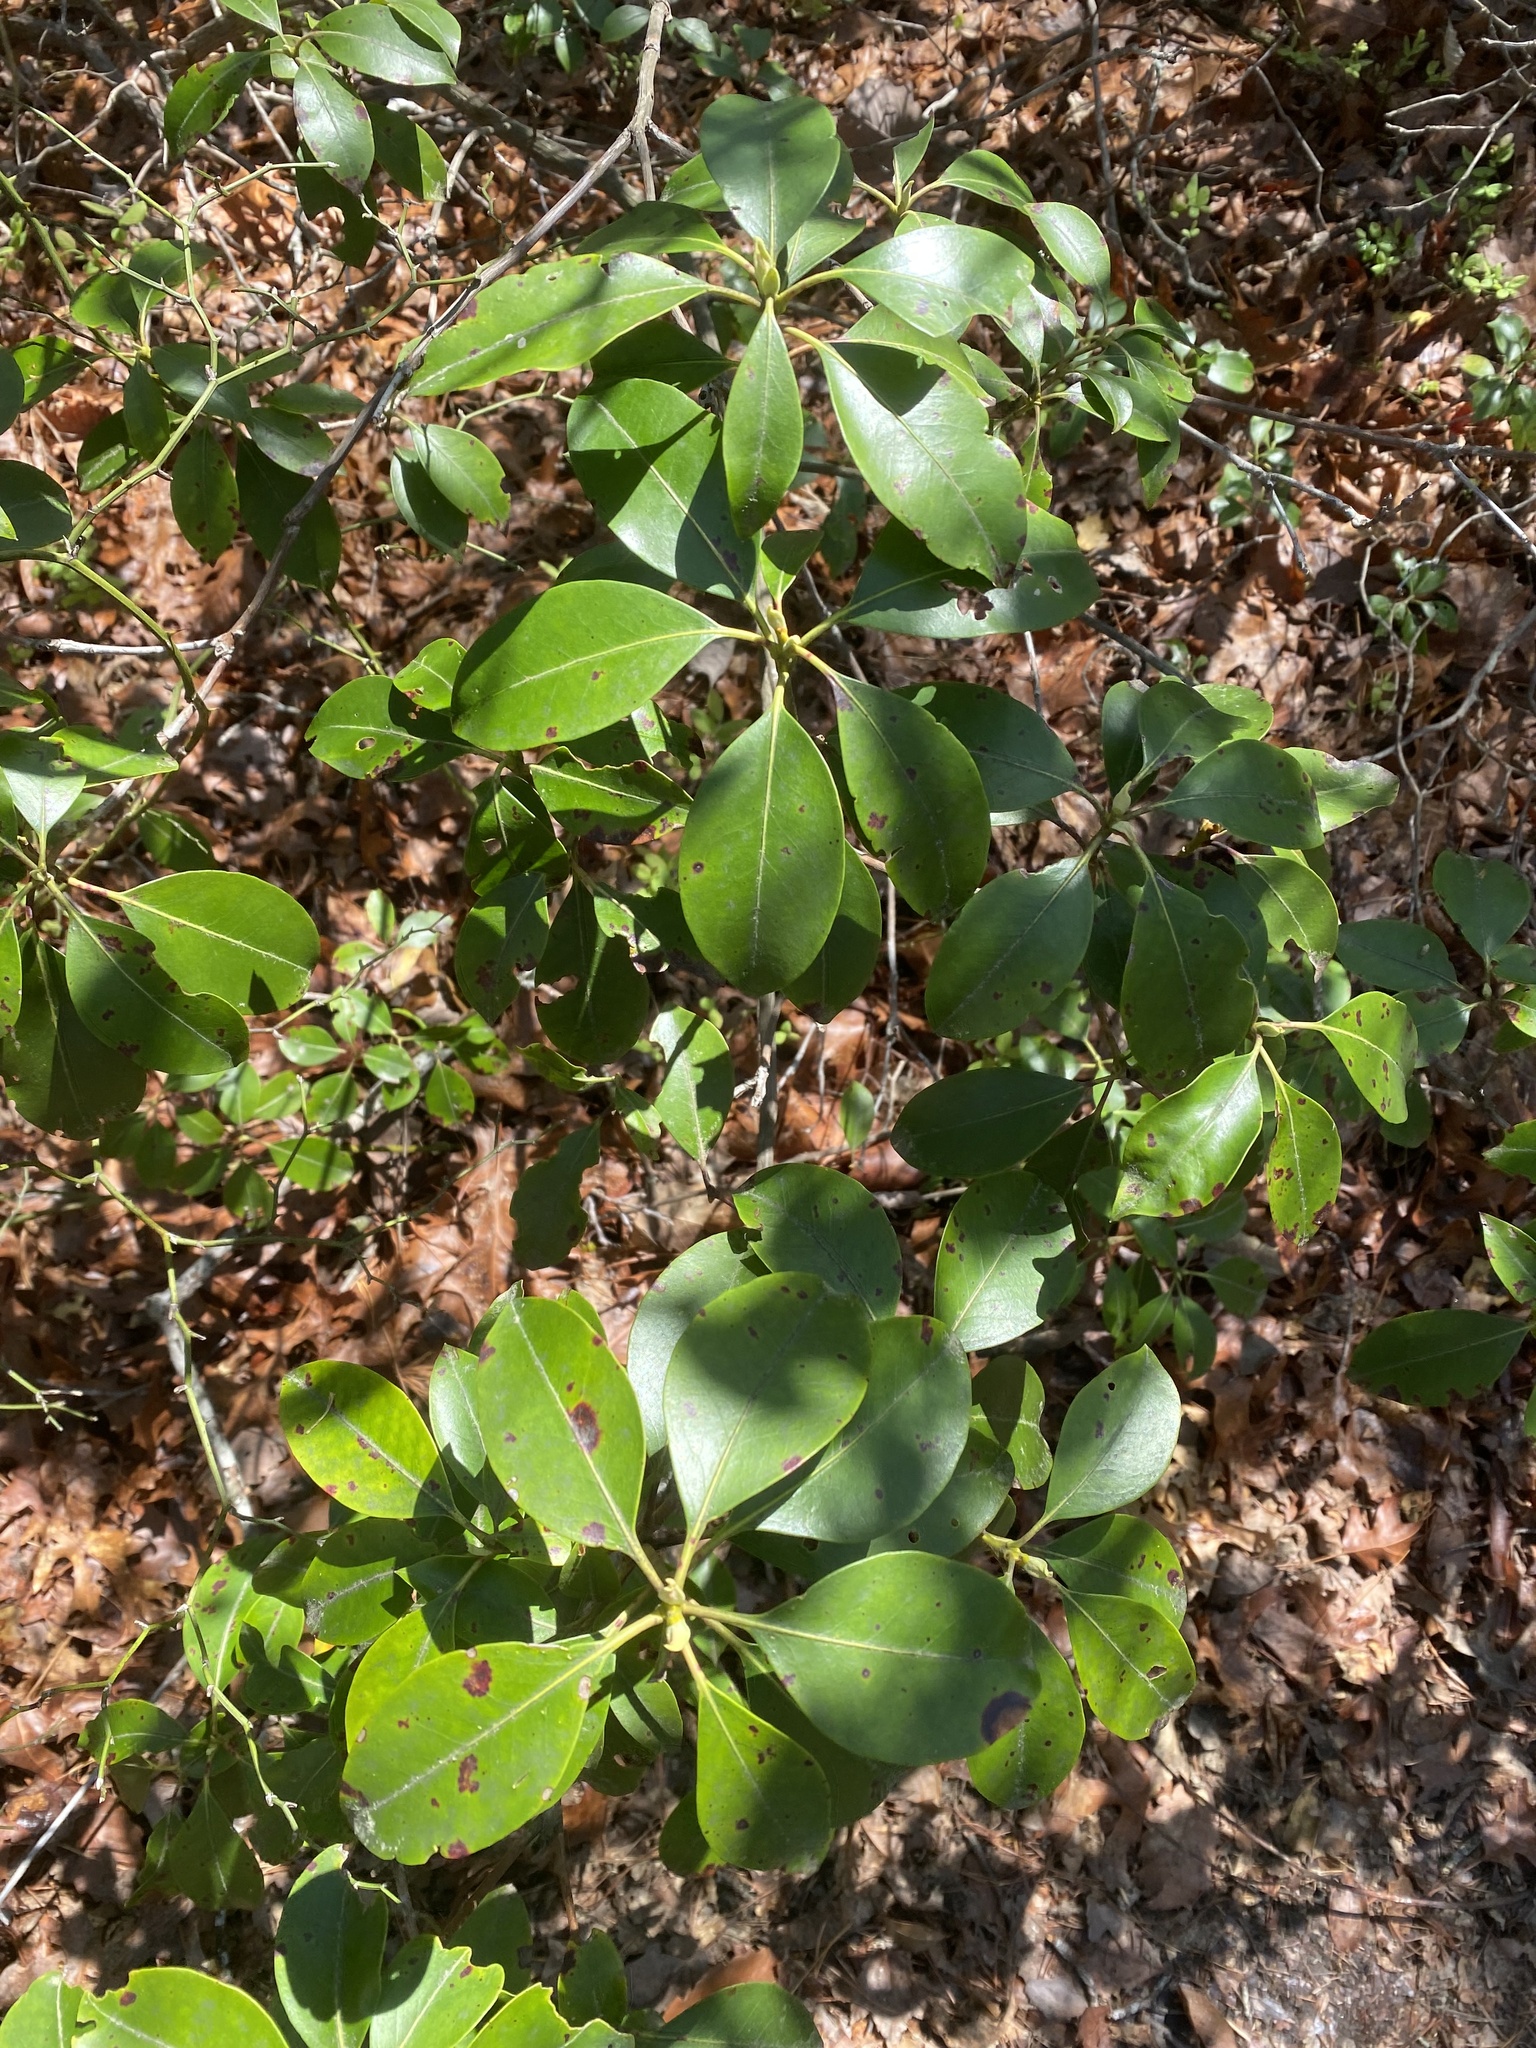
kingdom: Plantae
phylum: Tracheophyta
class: Magnoliopsida
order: Ericales
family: Ericaceae
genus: Kalmia
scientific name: Kalmia latifolia
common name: Mountain-laurel
